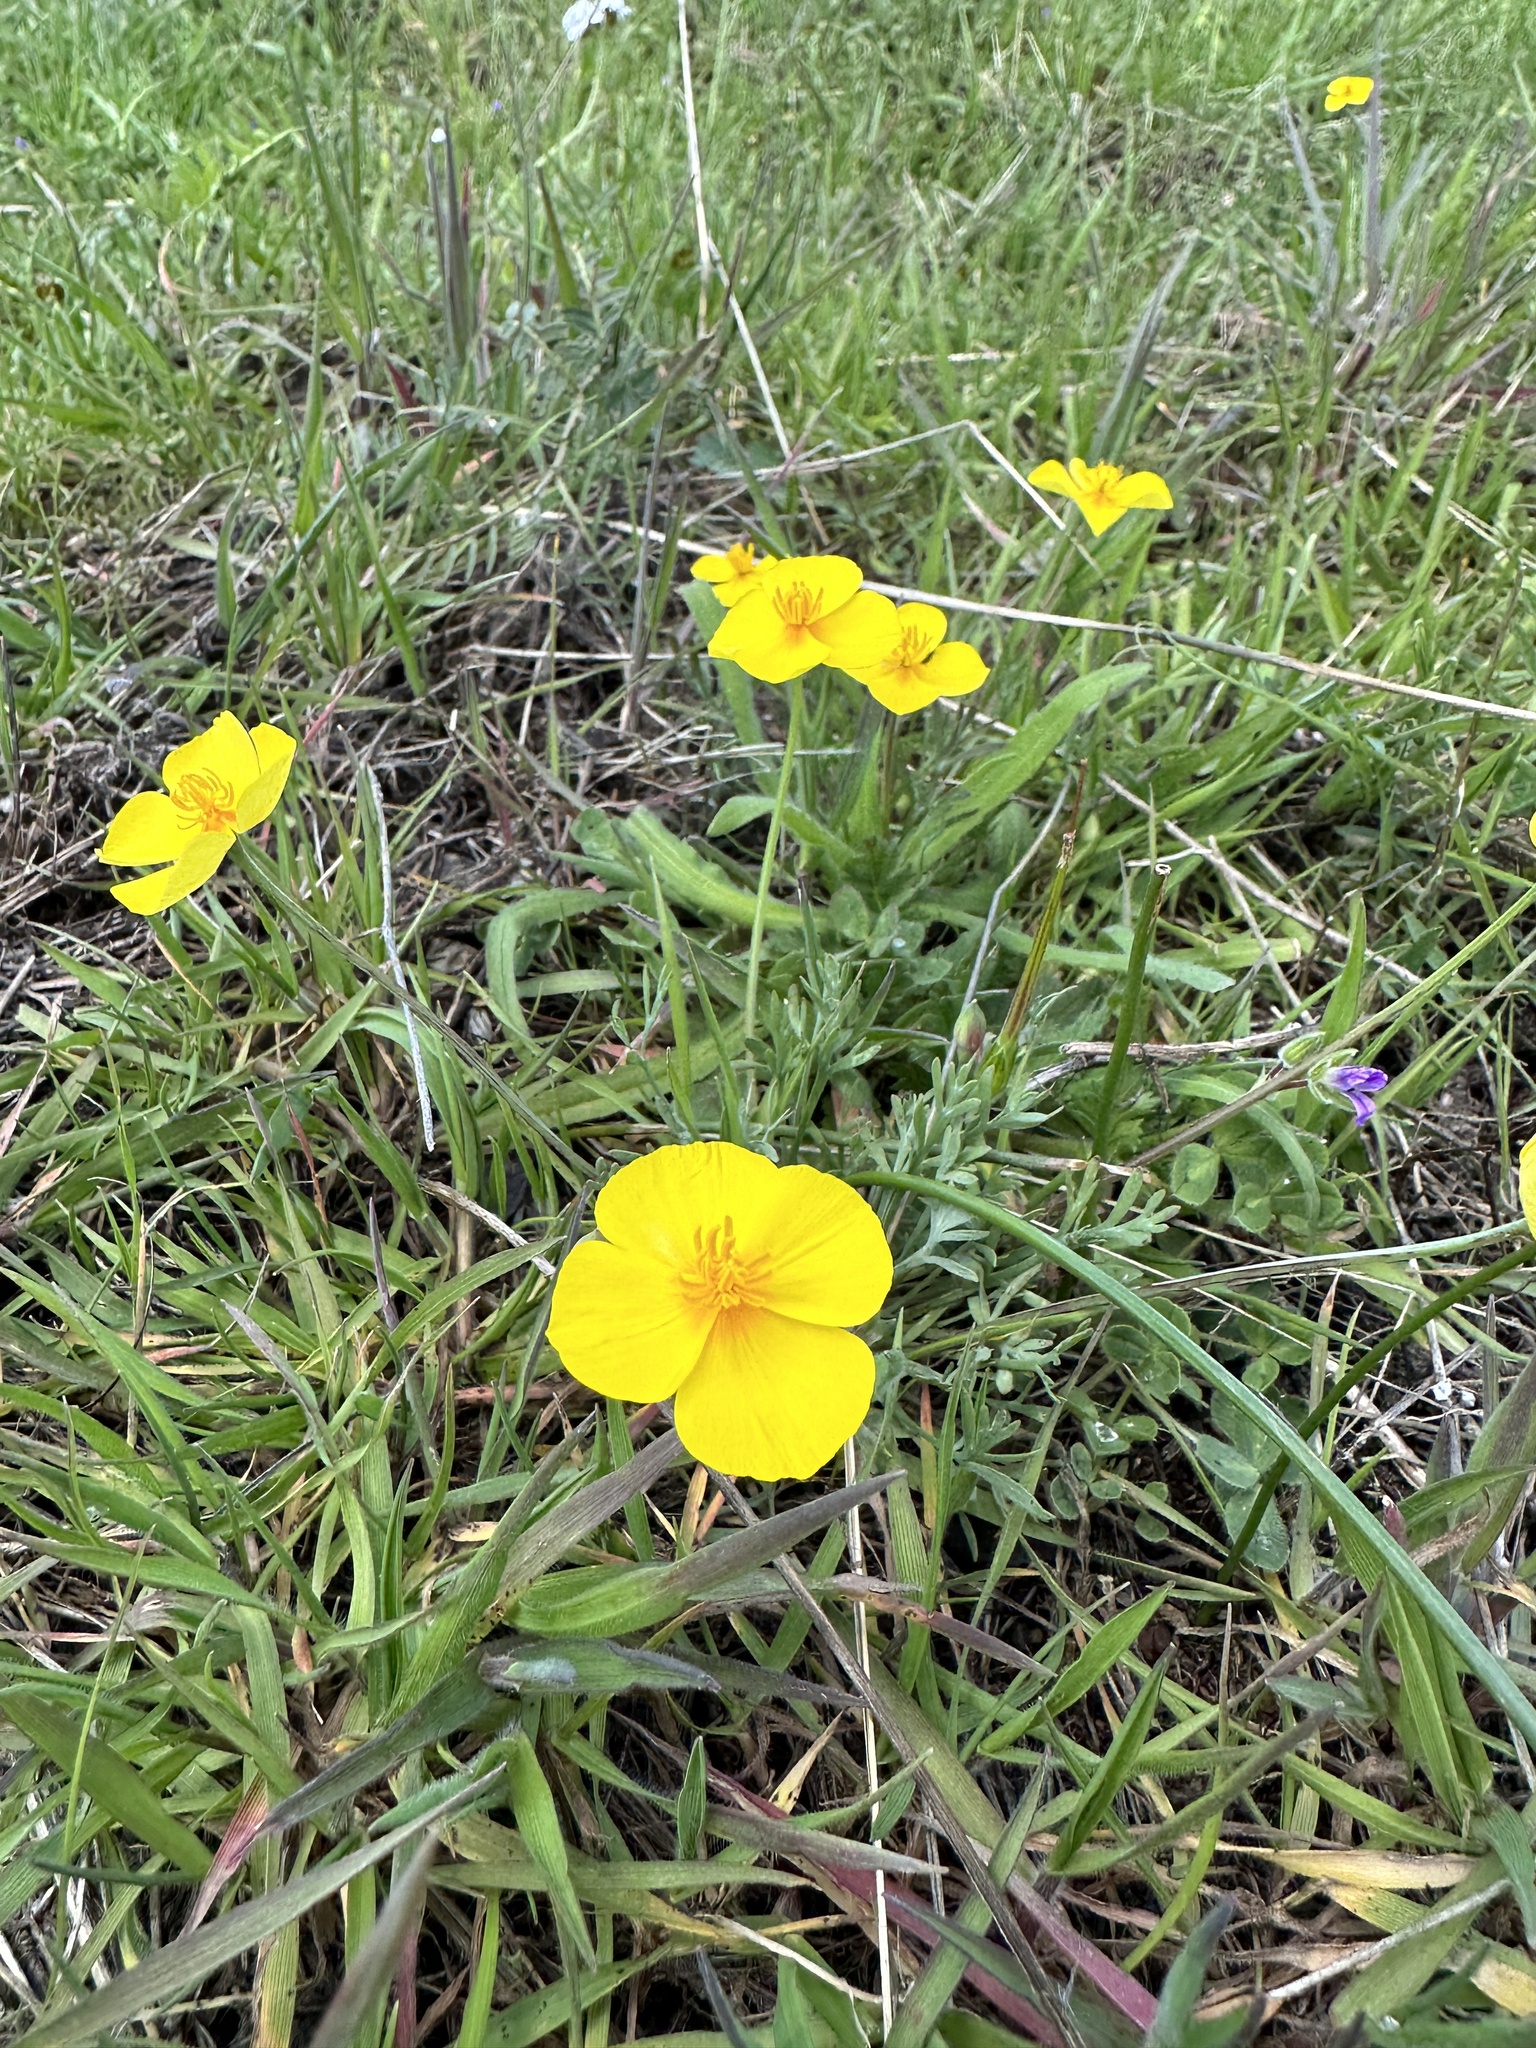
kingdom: Plantae
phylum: Tracheophyta
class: Magnoliopsida
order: Ranunculales
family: Papaveraceae
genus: Eschscholzia
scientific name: Eschscholzia lobbii
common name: Frying-pans
